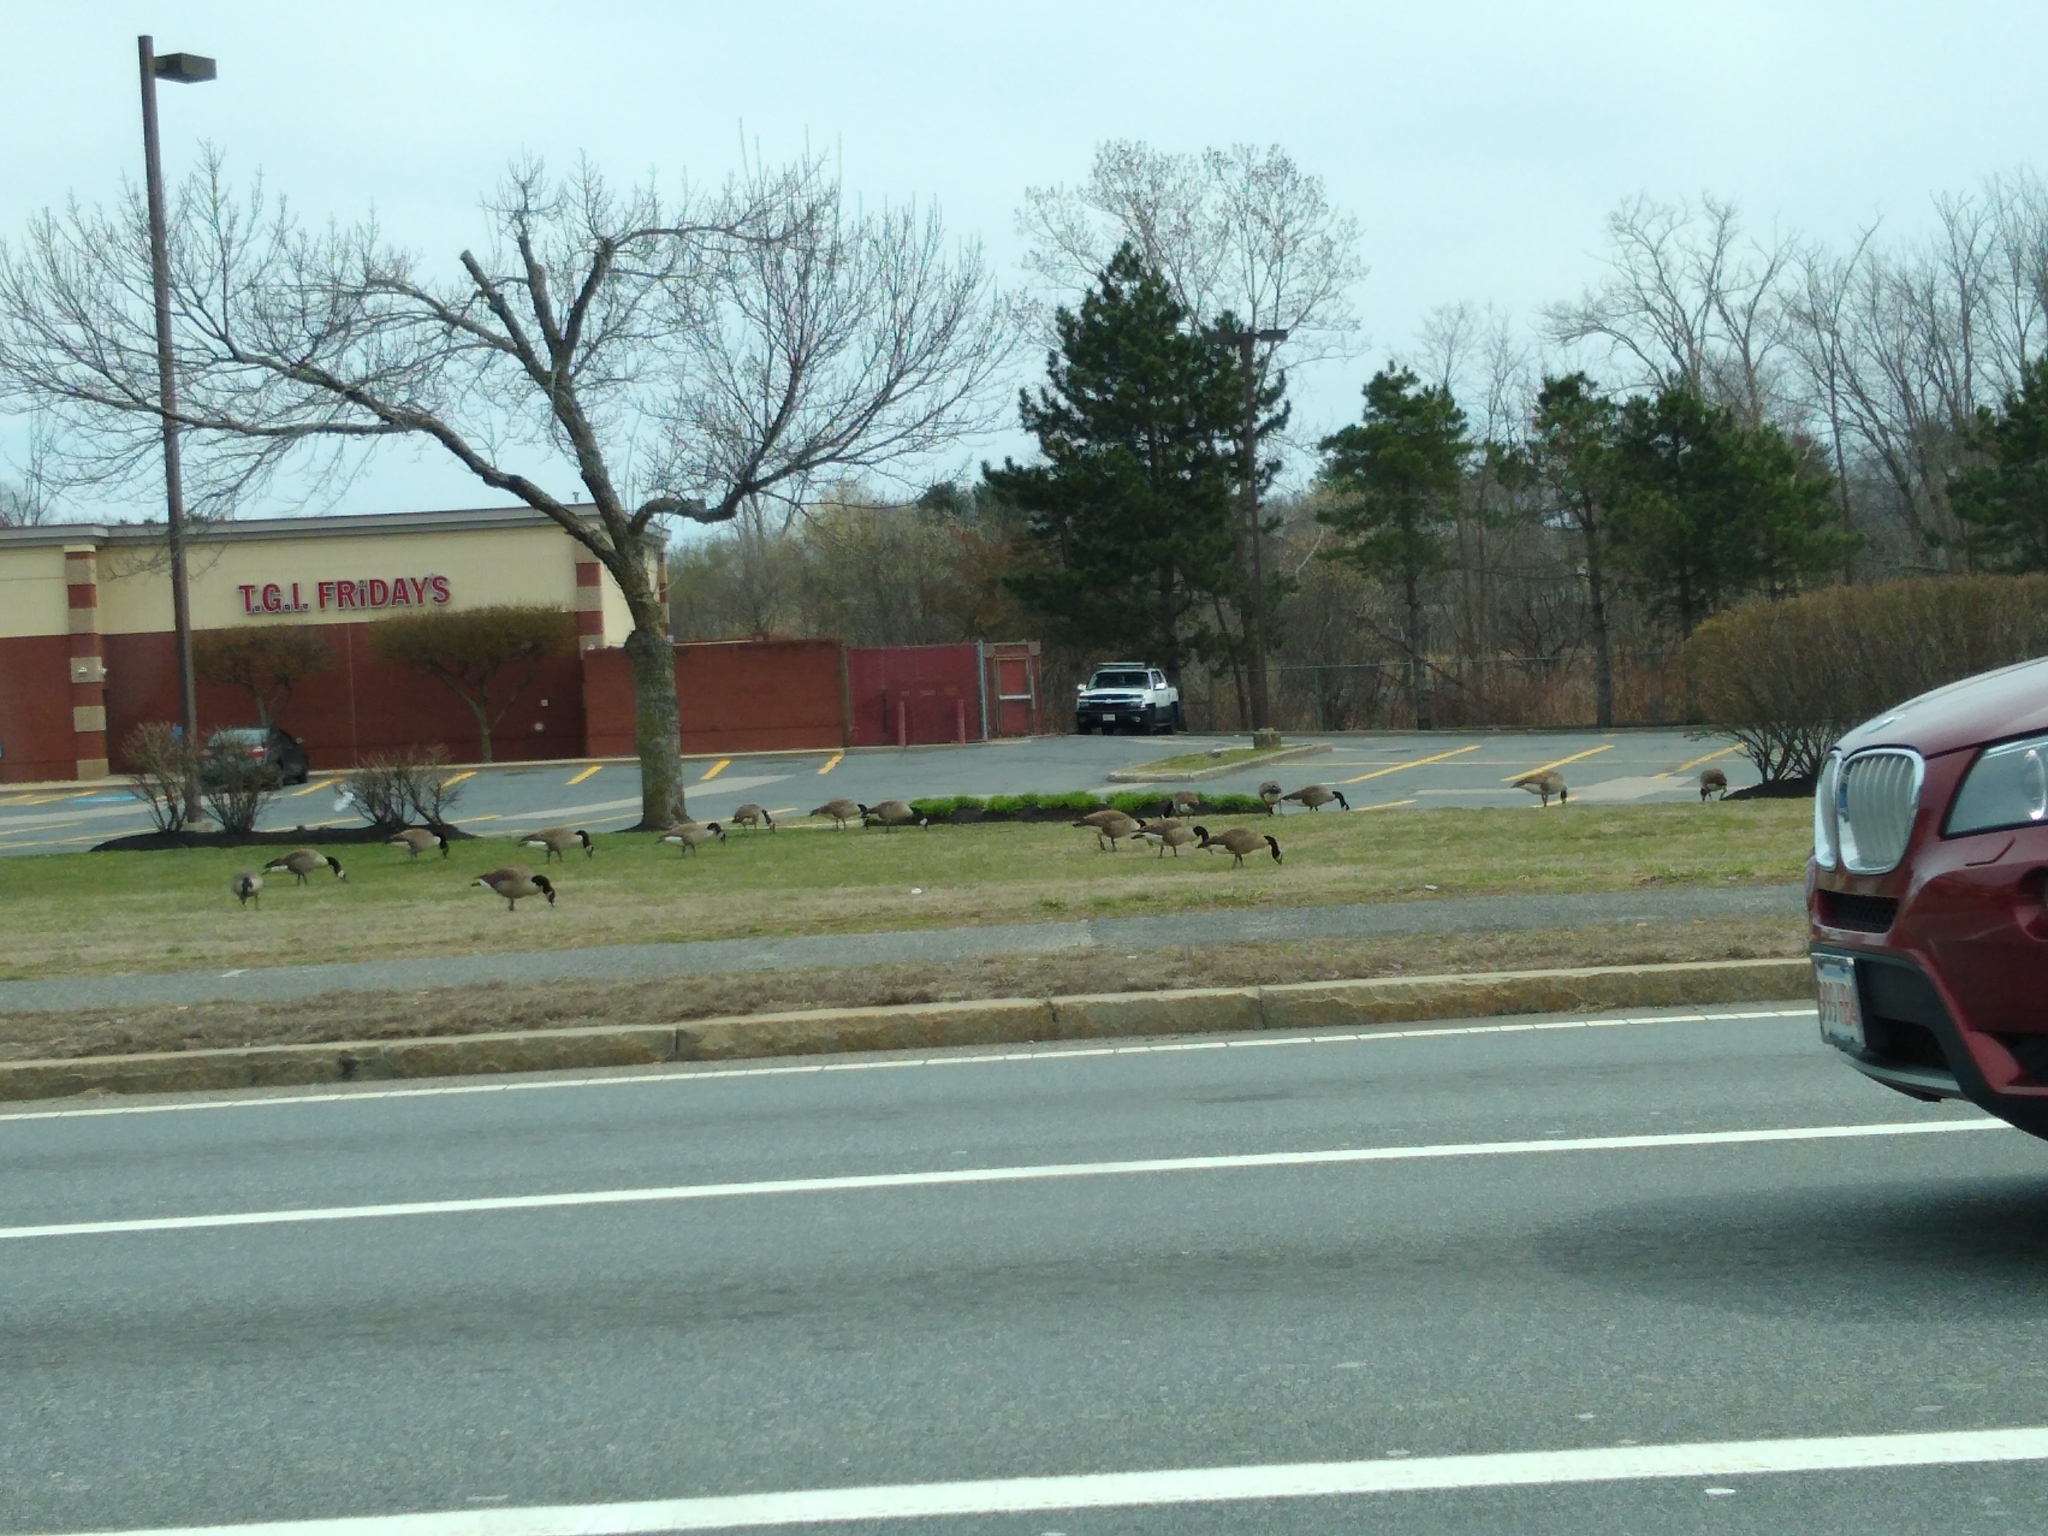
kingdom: Animalia
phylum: Chordata
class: Aves
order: Anseriformes
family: Anatidae
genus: Branta
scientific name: Branta canadensis
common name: Canada goose
